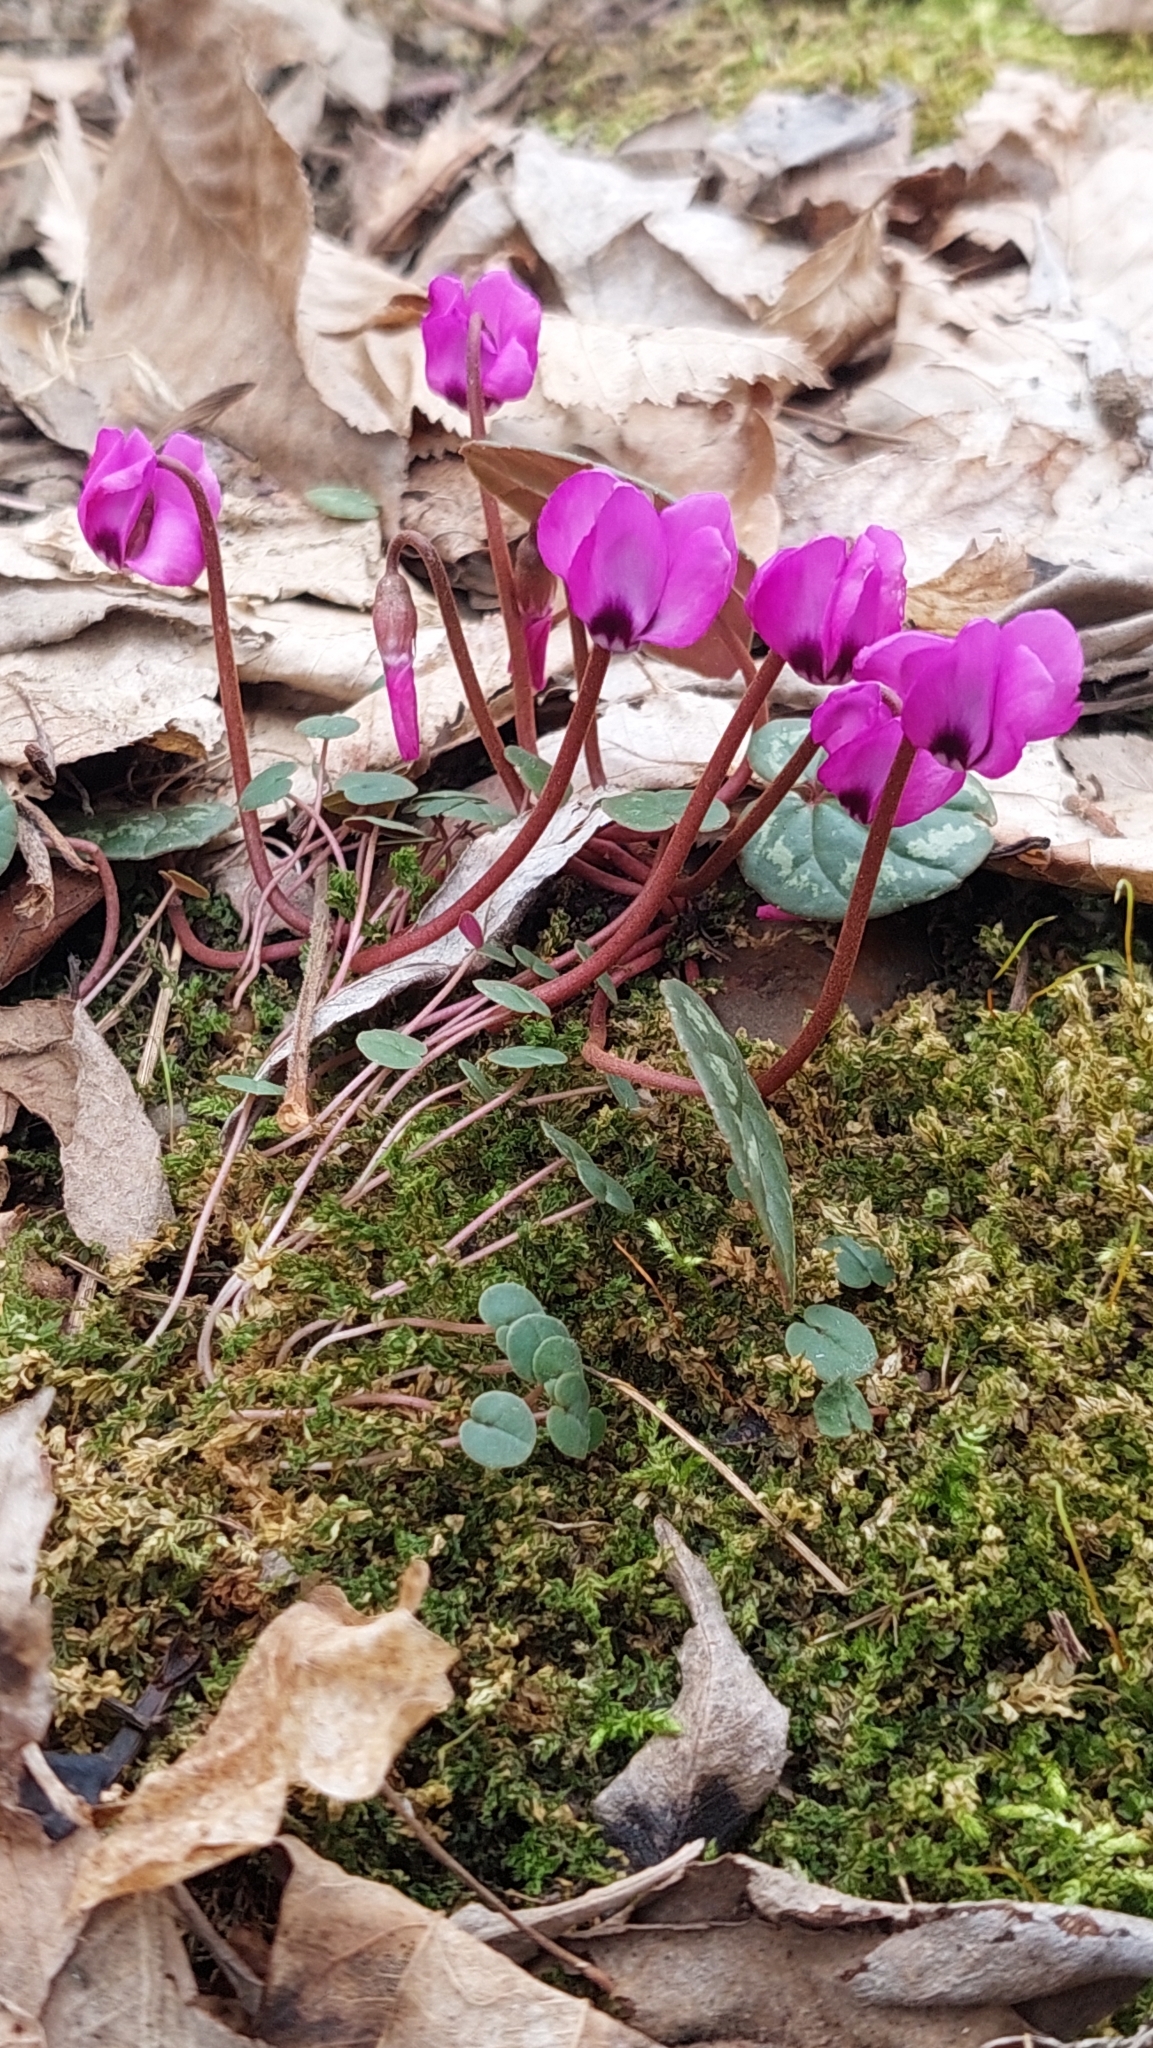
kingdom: Plantae
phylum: Tracheophyta
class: Magnoliopsida
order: Ericales
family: Primulaceae
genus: Cyclamen
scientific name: Cyclamen coum
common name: Eastern sowbread
